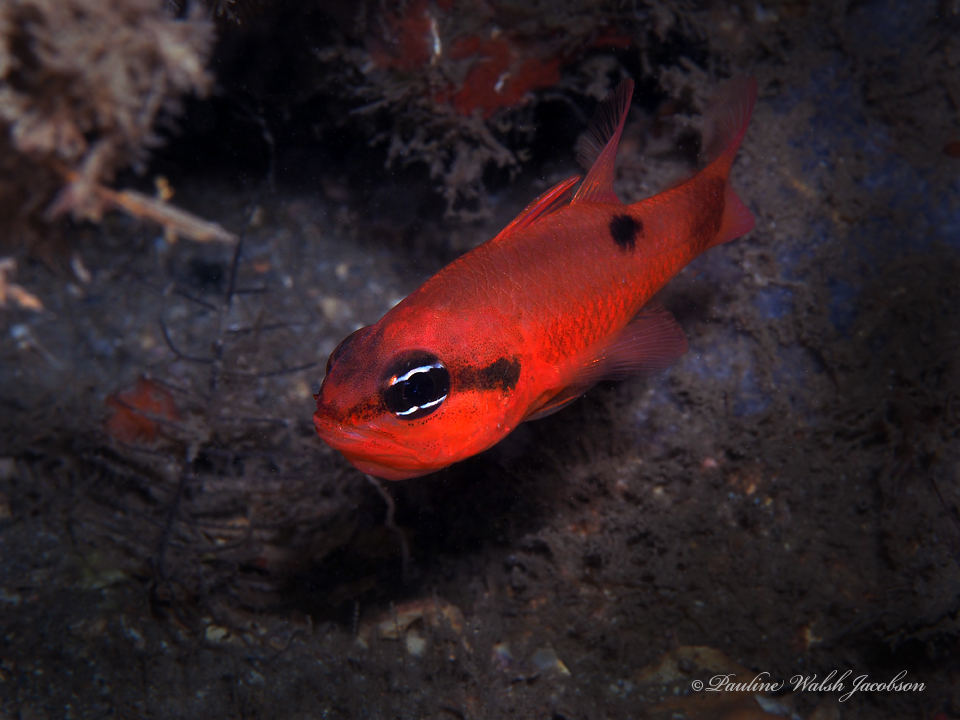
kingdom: Animalia
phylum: Chordata
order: Perciformes
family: Apogonidae
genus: Apogon
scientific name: Apogon maculatus
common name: Flamefish
